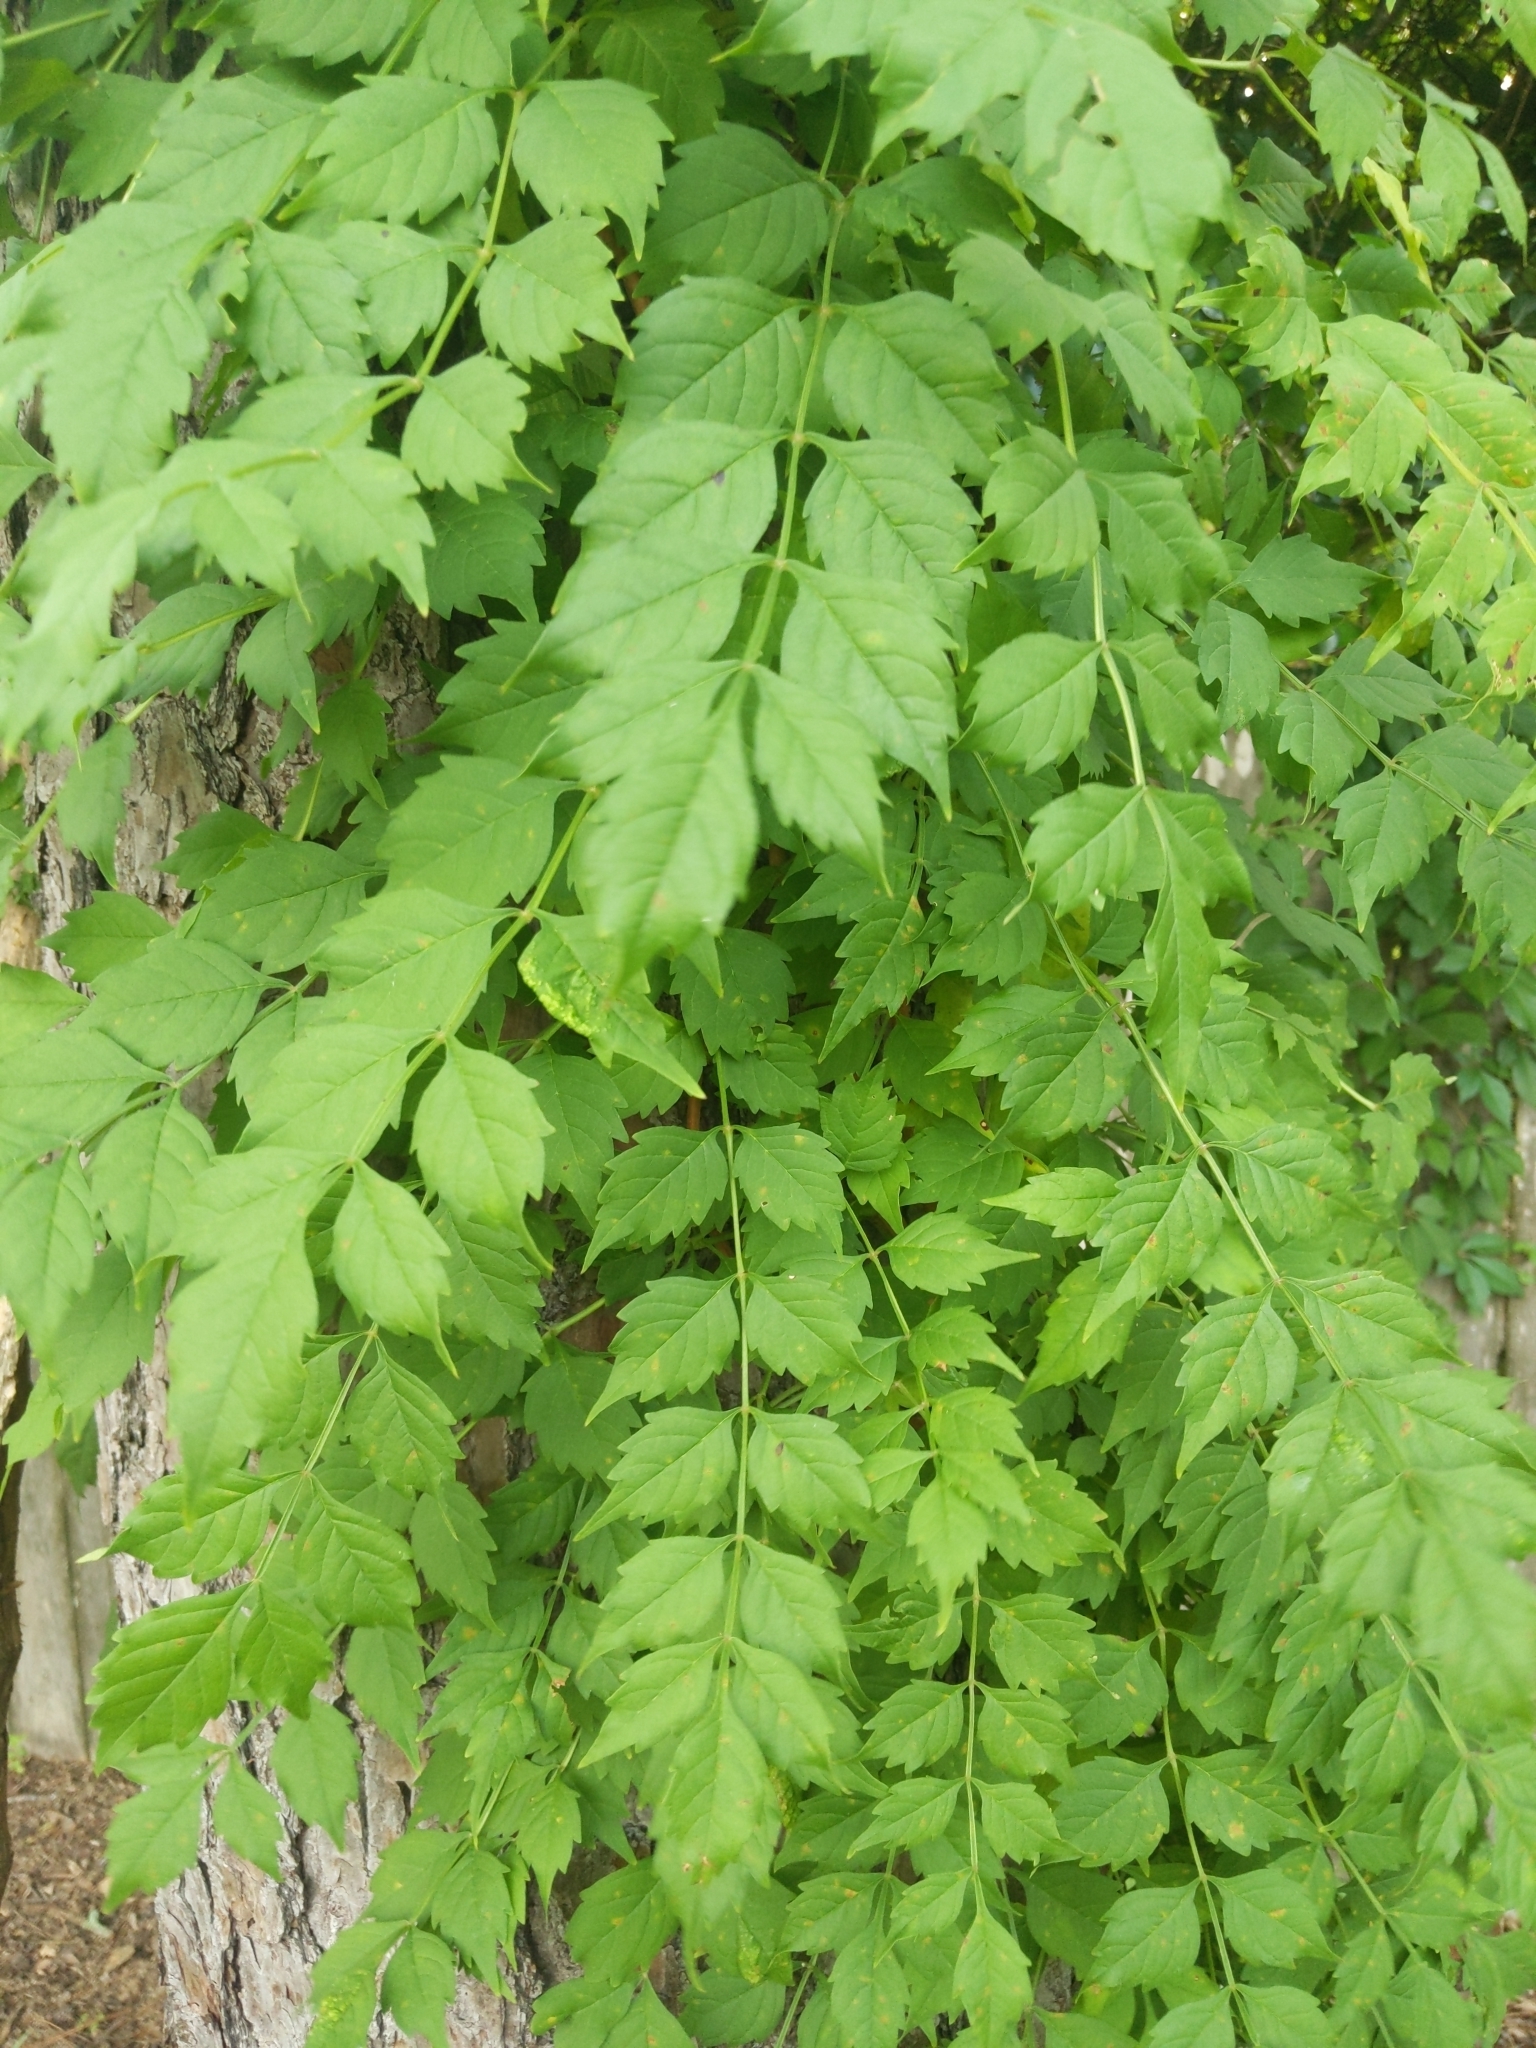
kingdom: Plantae
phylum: Tracheophyta
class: Magnoliopsida
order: Lamiales
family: Bignoniaceae
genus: Campsis
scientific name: Campsis radicans
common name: Trumpet-creeper
